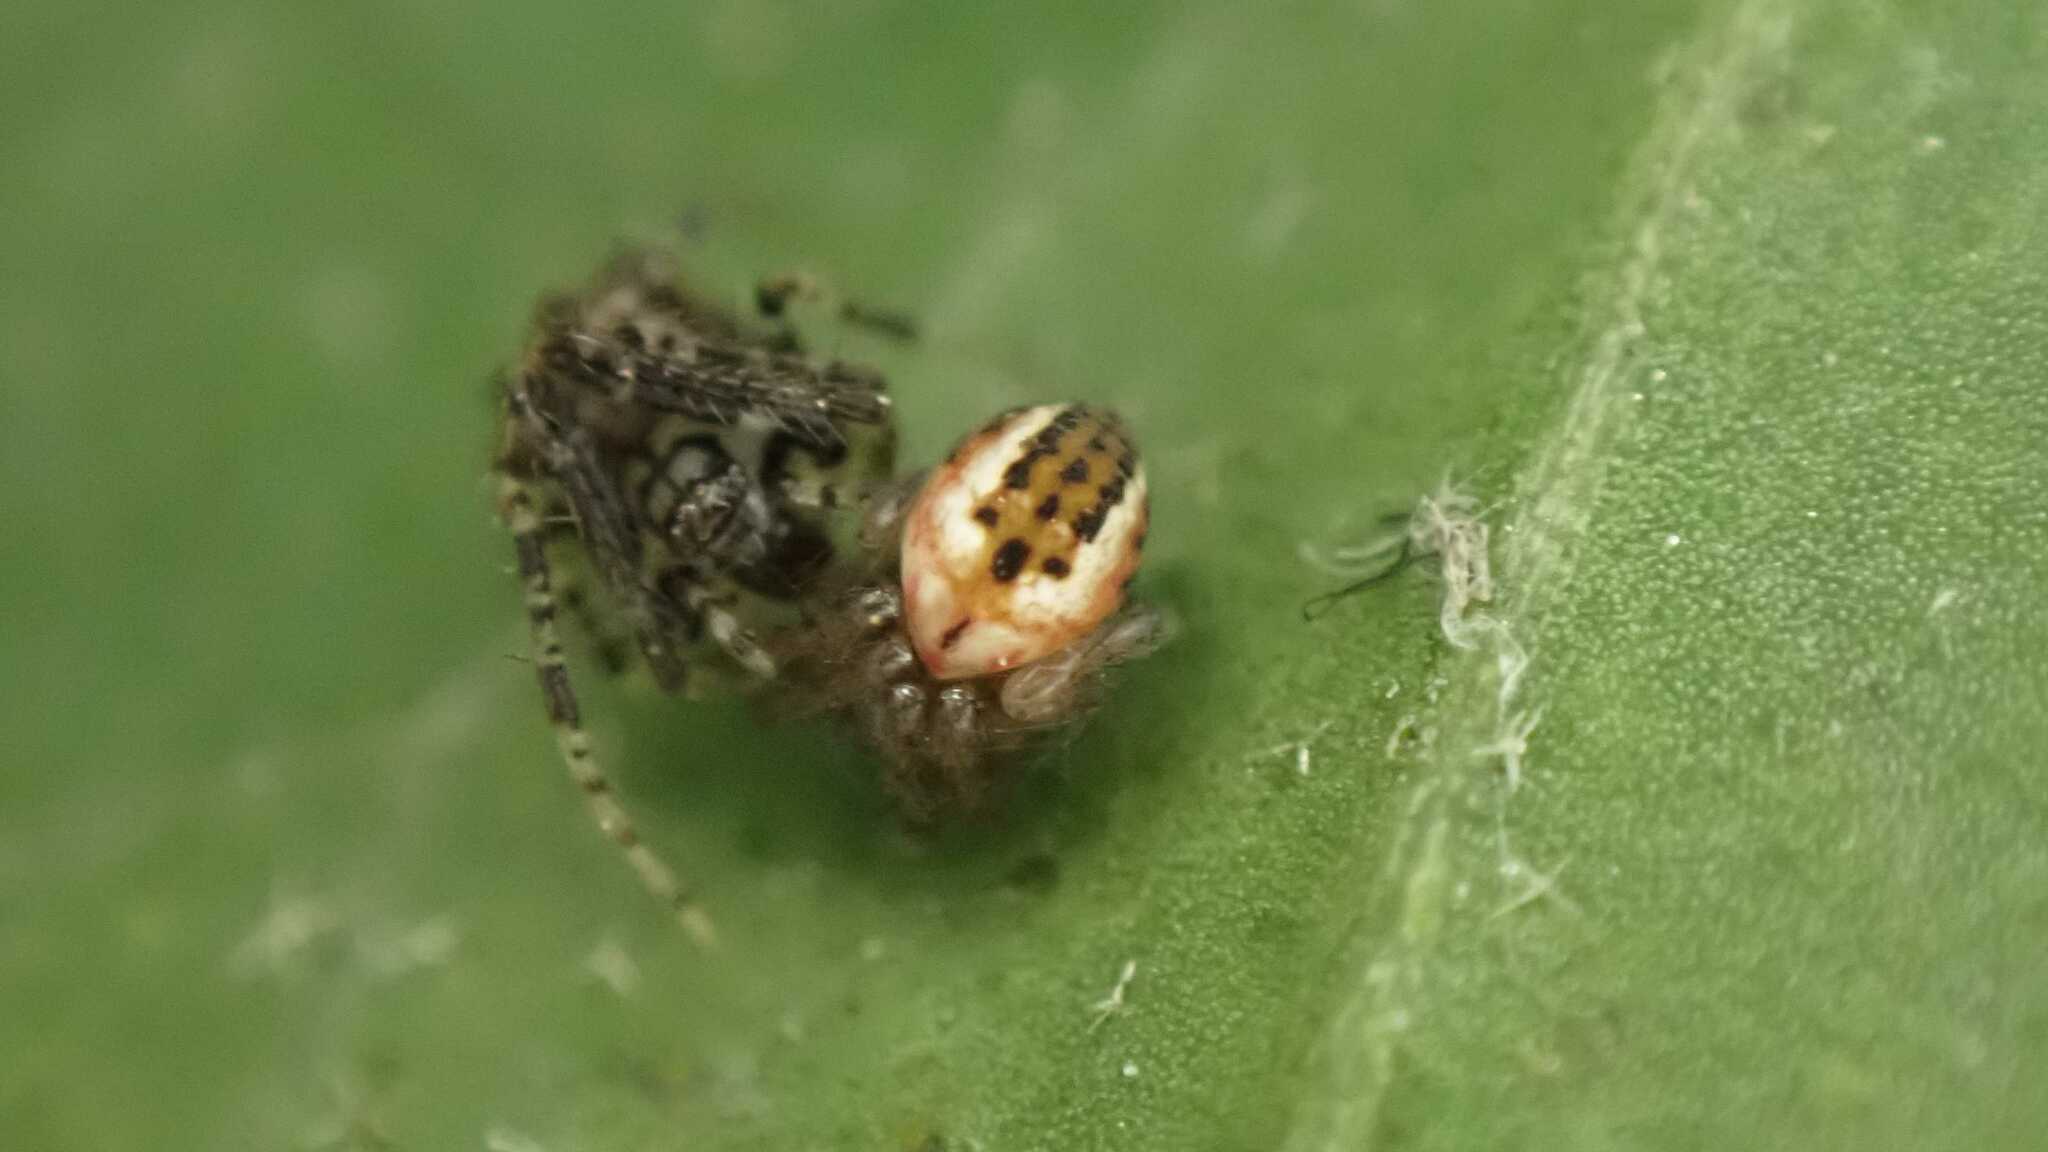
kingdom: Animalia
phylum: Arthropoda
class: Arachnida
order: Araneae
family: Araneidae
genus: Mangora
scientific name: Mangora acalypha
